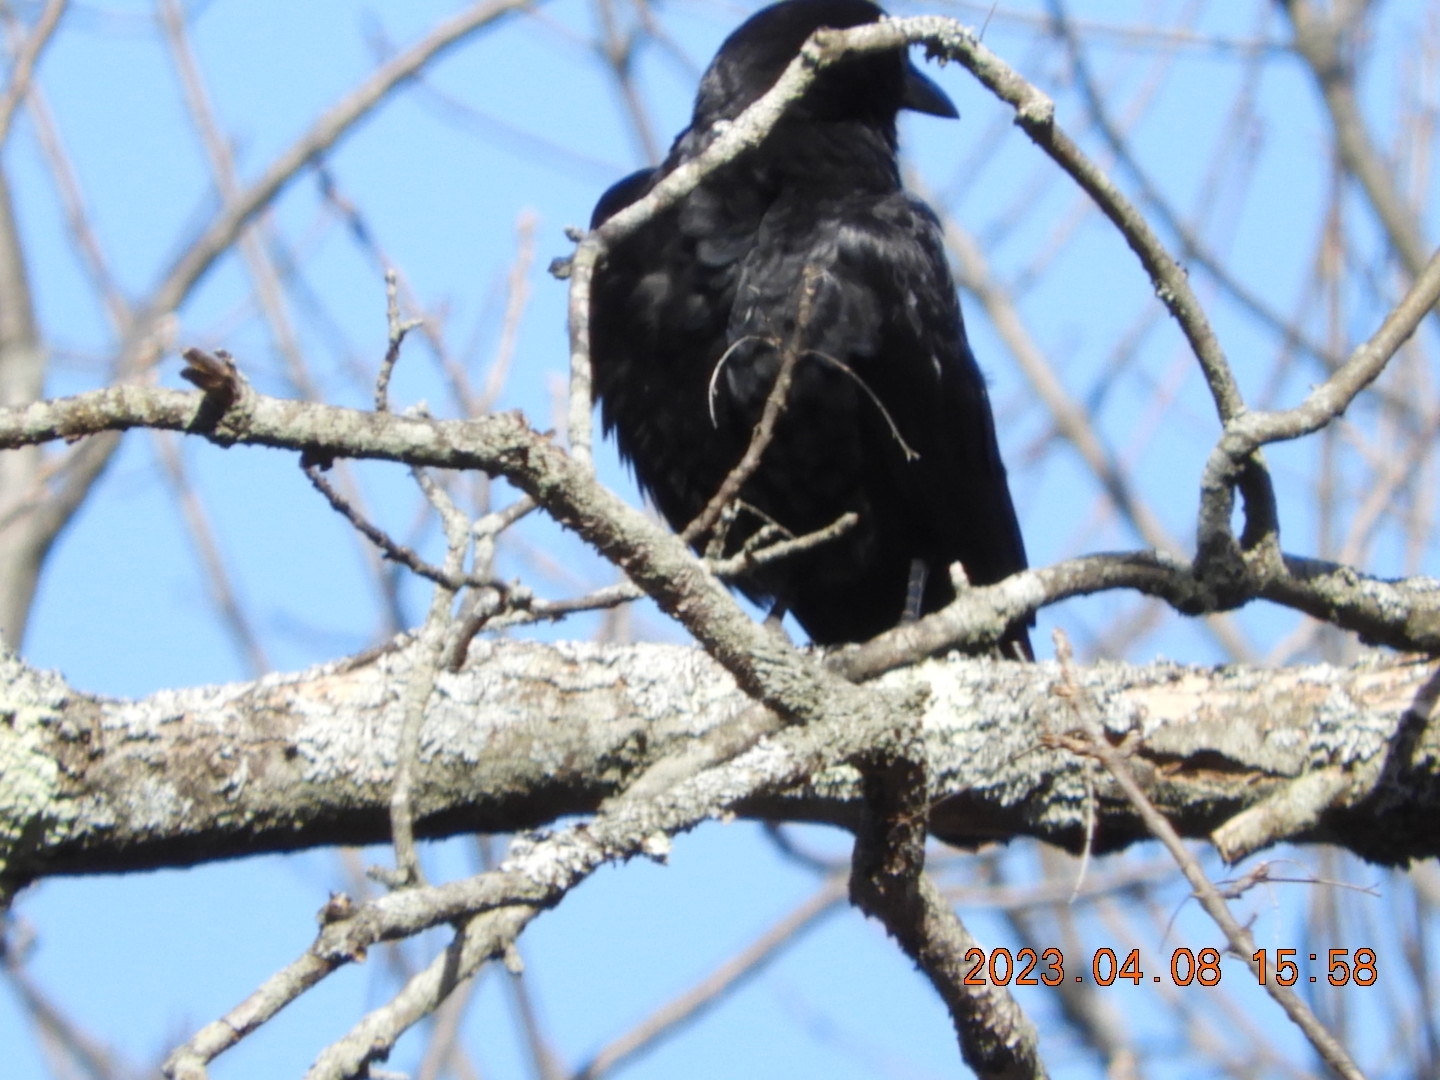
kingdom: Animalia
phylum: Chordata
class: Aves
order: Passeriformes
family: Corvidae
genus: Corvus
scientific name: Corvus brachyrhynchos
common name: American crow
